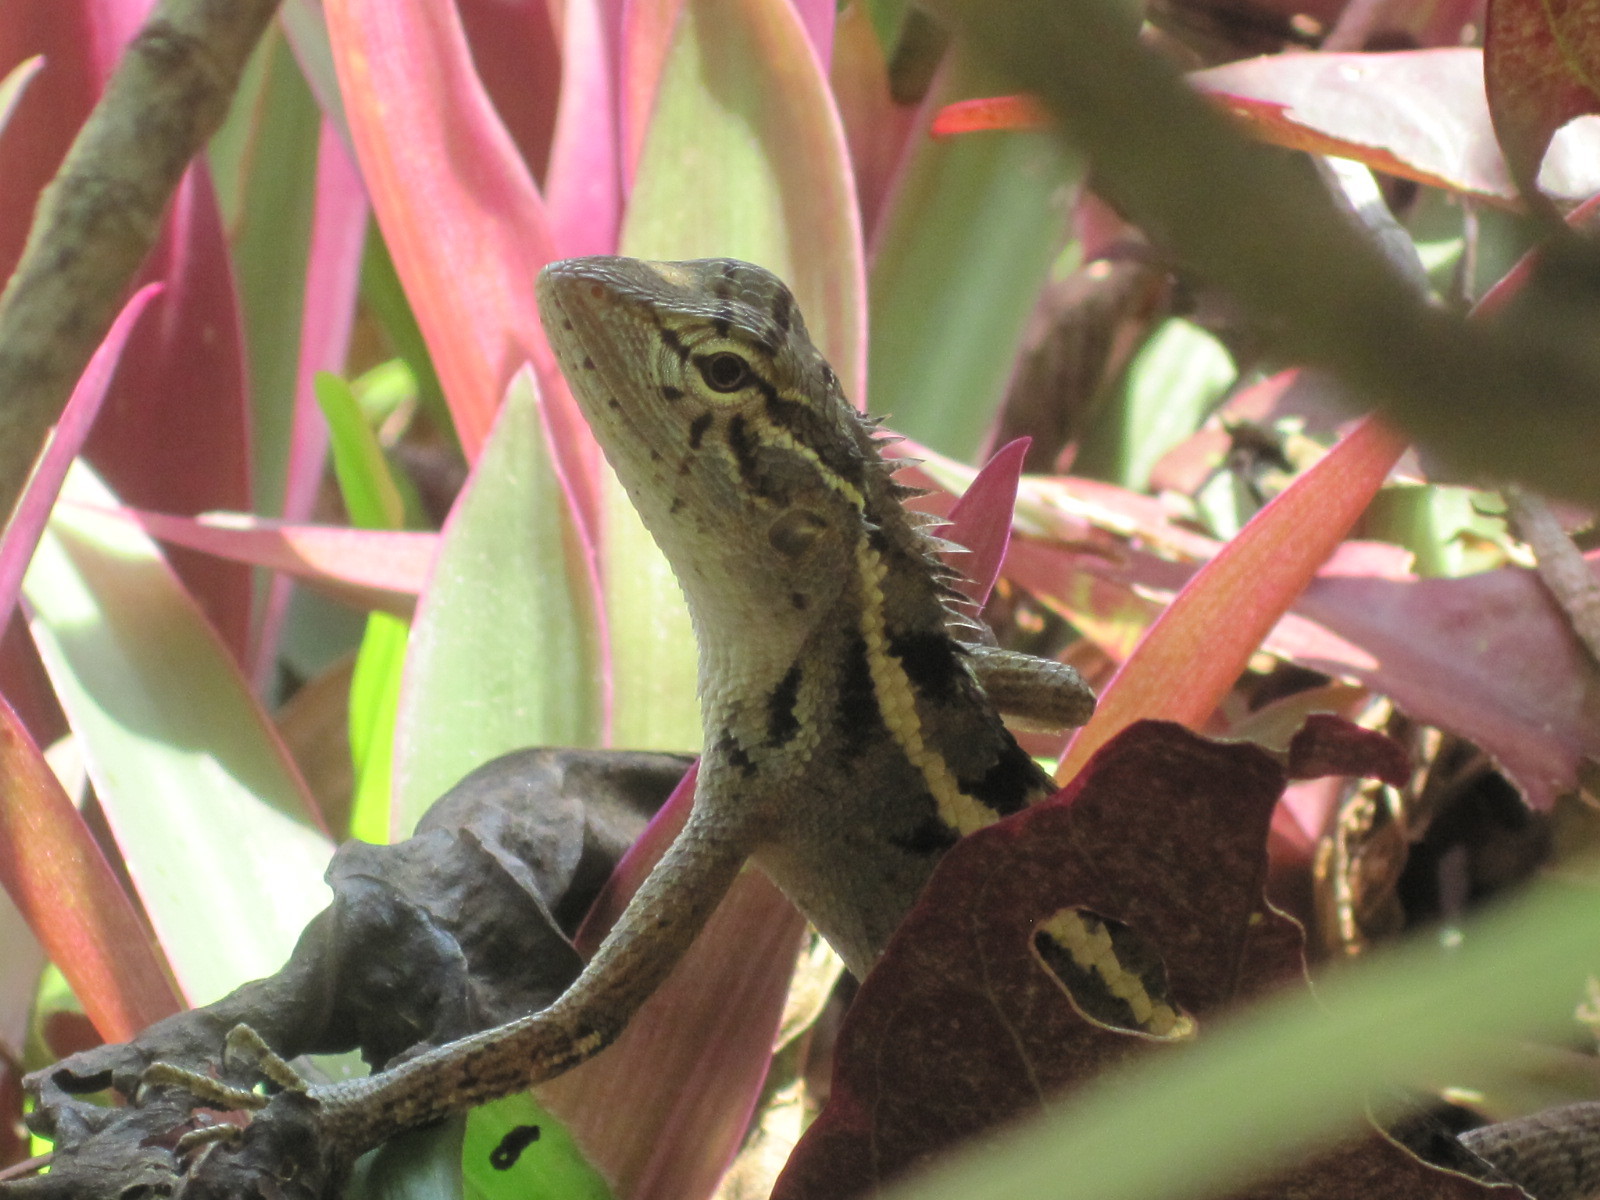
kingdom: Animalia
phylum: Chordata
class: Squamata
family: Agamidae
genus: Calotes
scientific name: Calotes versicolor
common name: Oriental garden lizard
